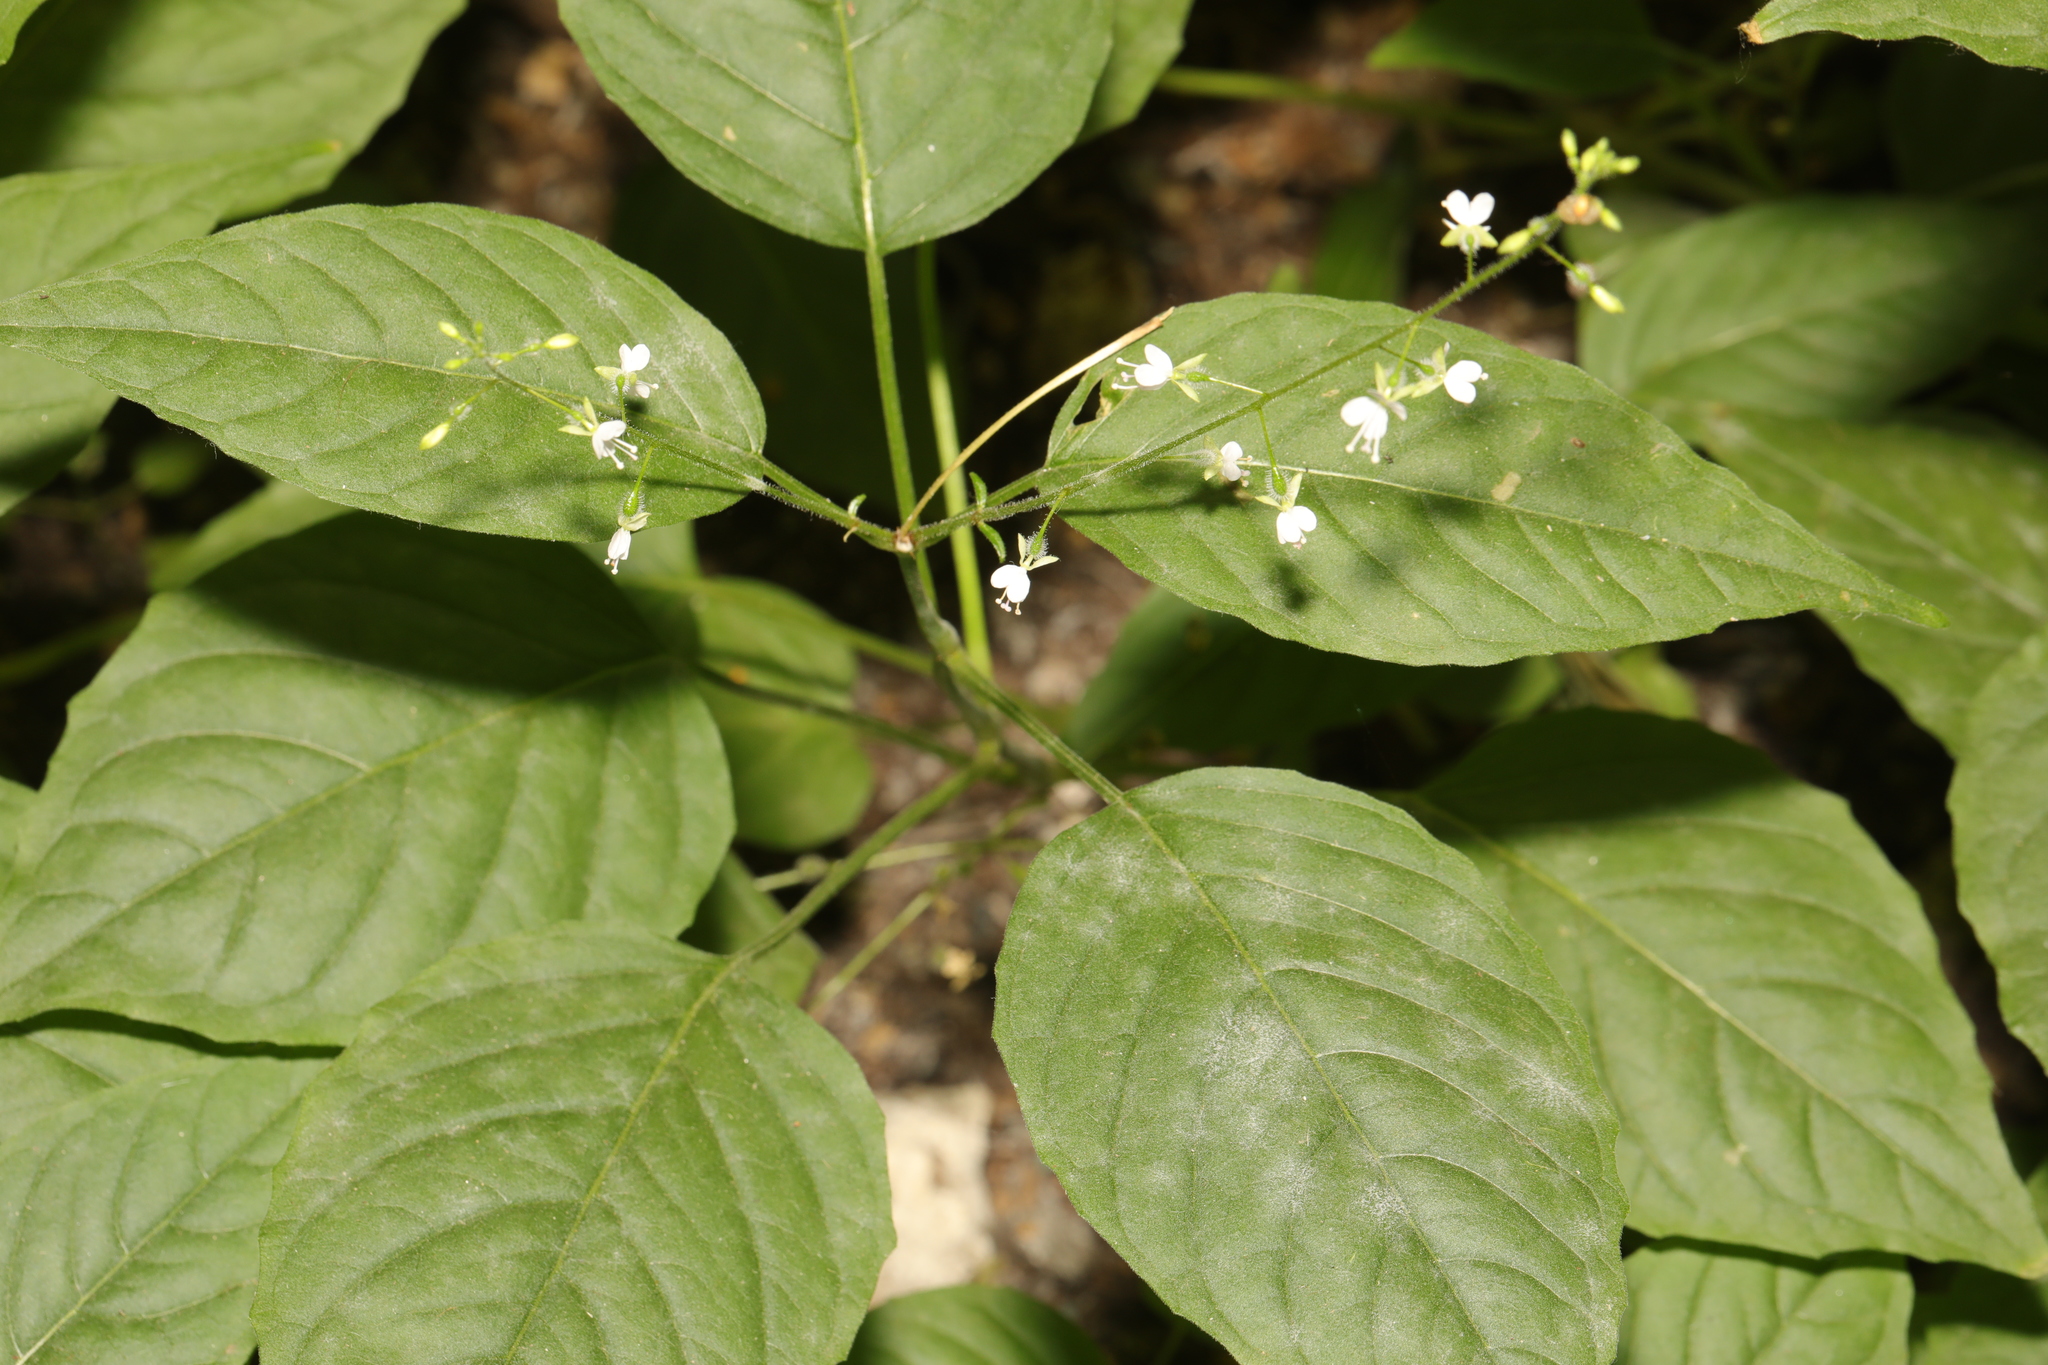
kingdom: Plantae
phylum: Tracheophyta
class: Magnoliopsida
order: Myrtales
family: Onagraceae
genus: Circaea
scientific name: Circaea lutetiana
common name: Enchanter's-nightshade
